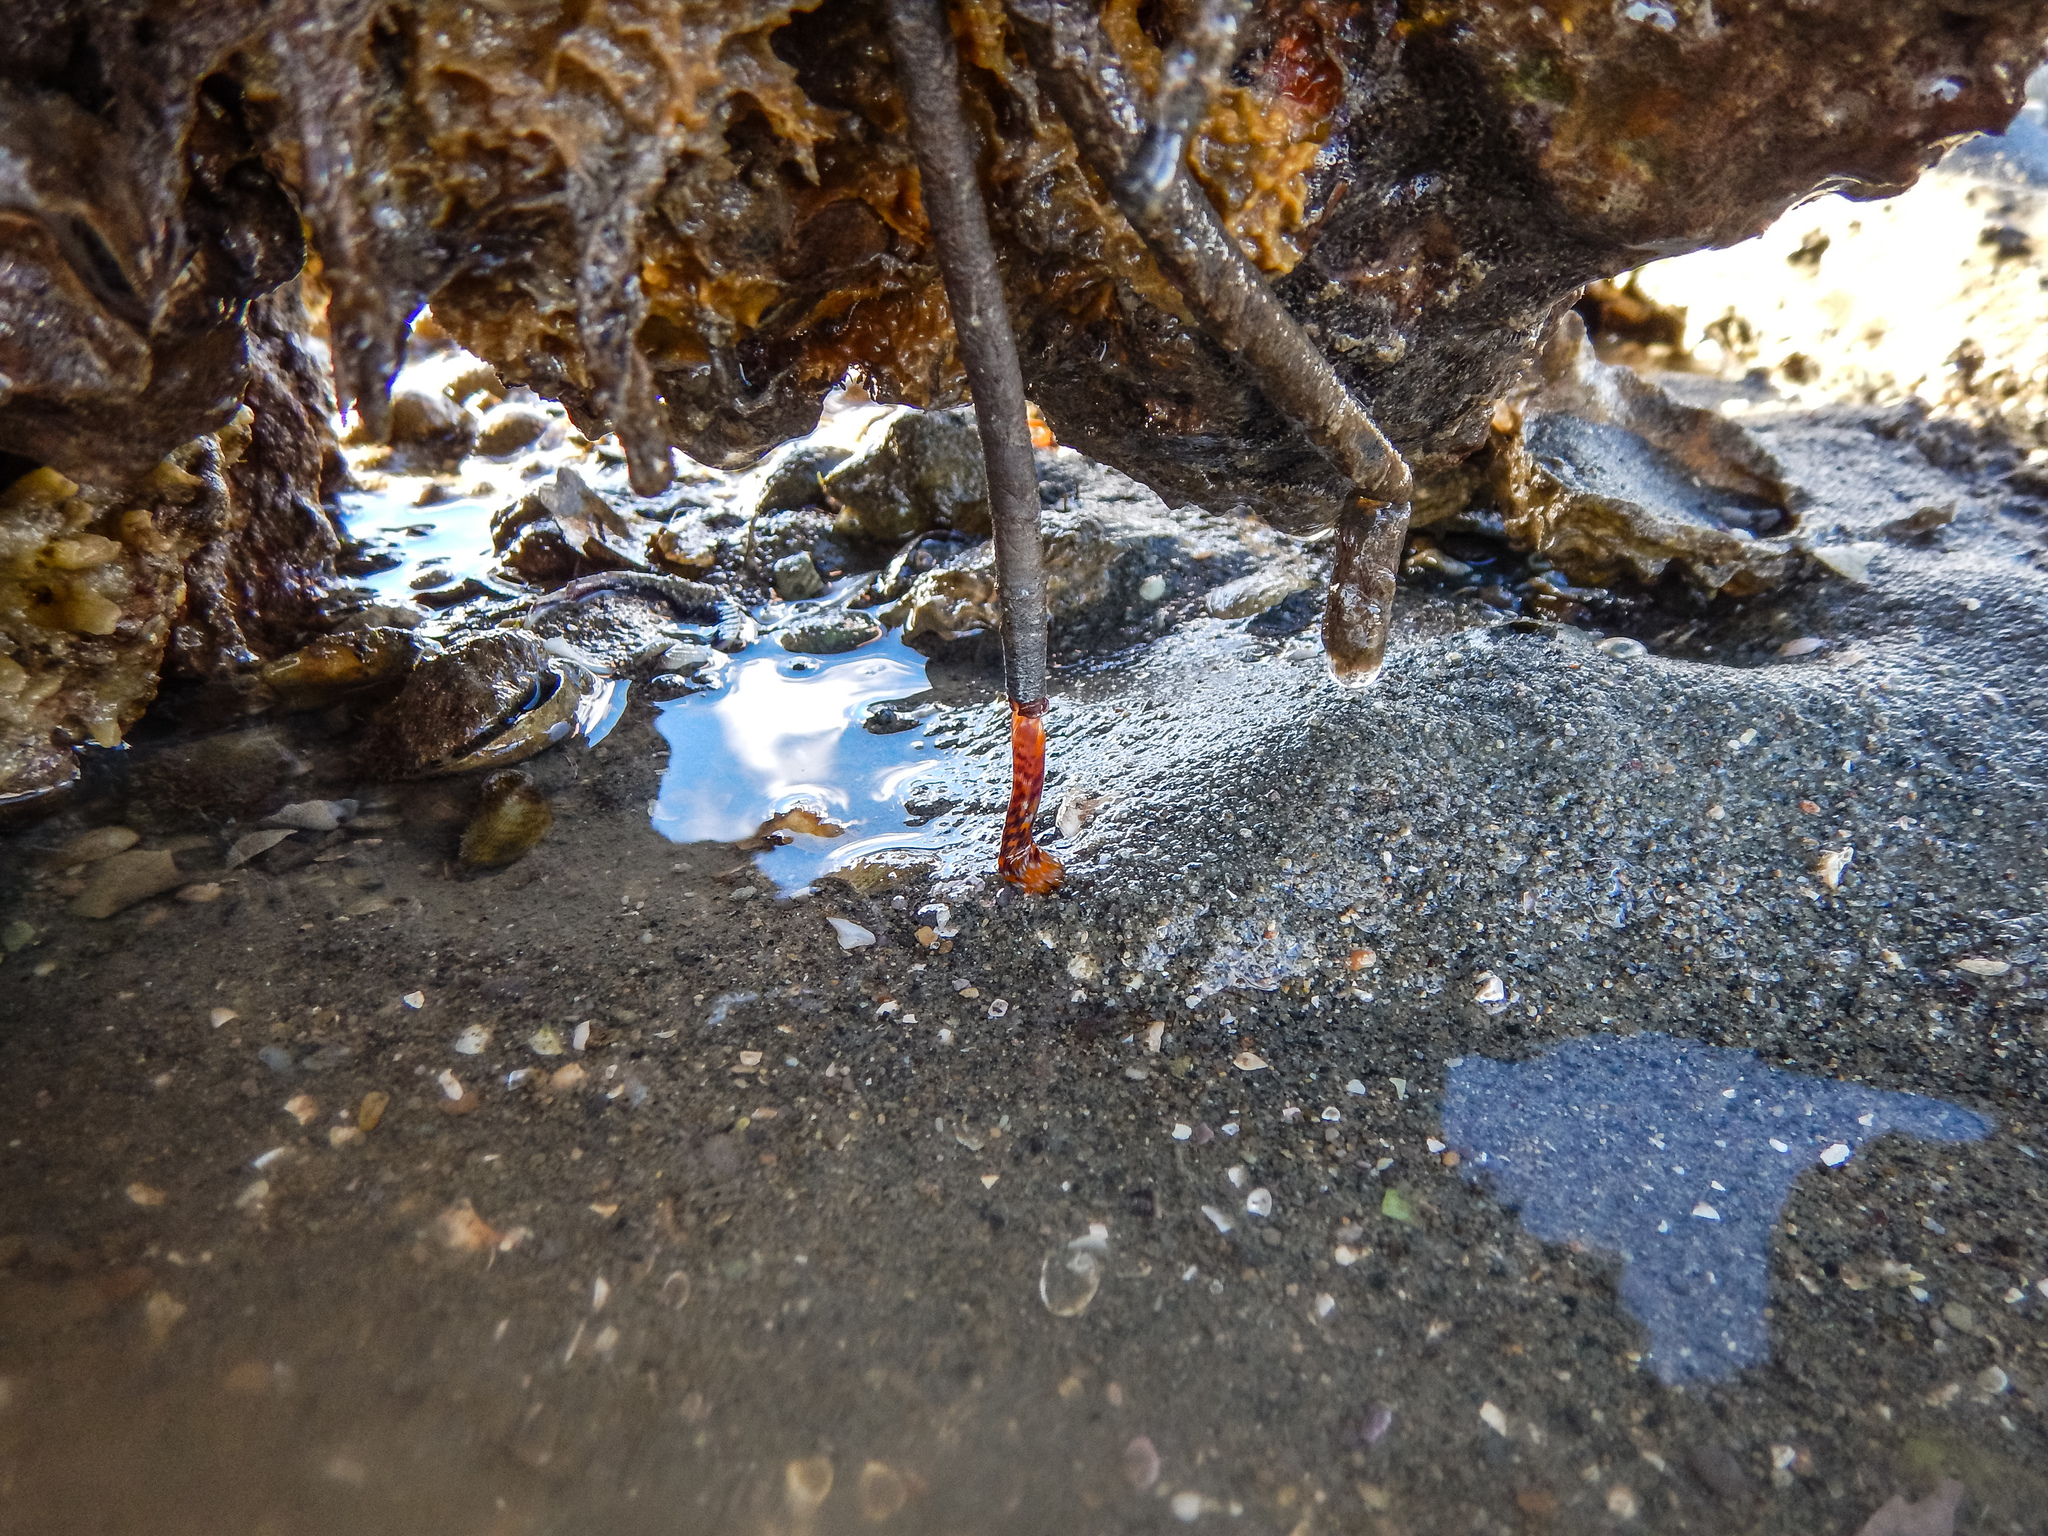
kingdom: Animalia
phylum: Annelida
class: Polychaeta
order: Sabellida
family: Sabellidae
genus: Sabella
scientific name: Sabella spallanzanii
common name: Feather duster worm
